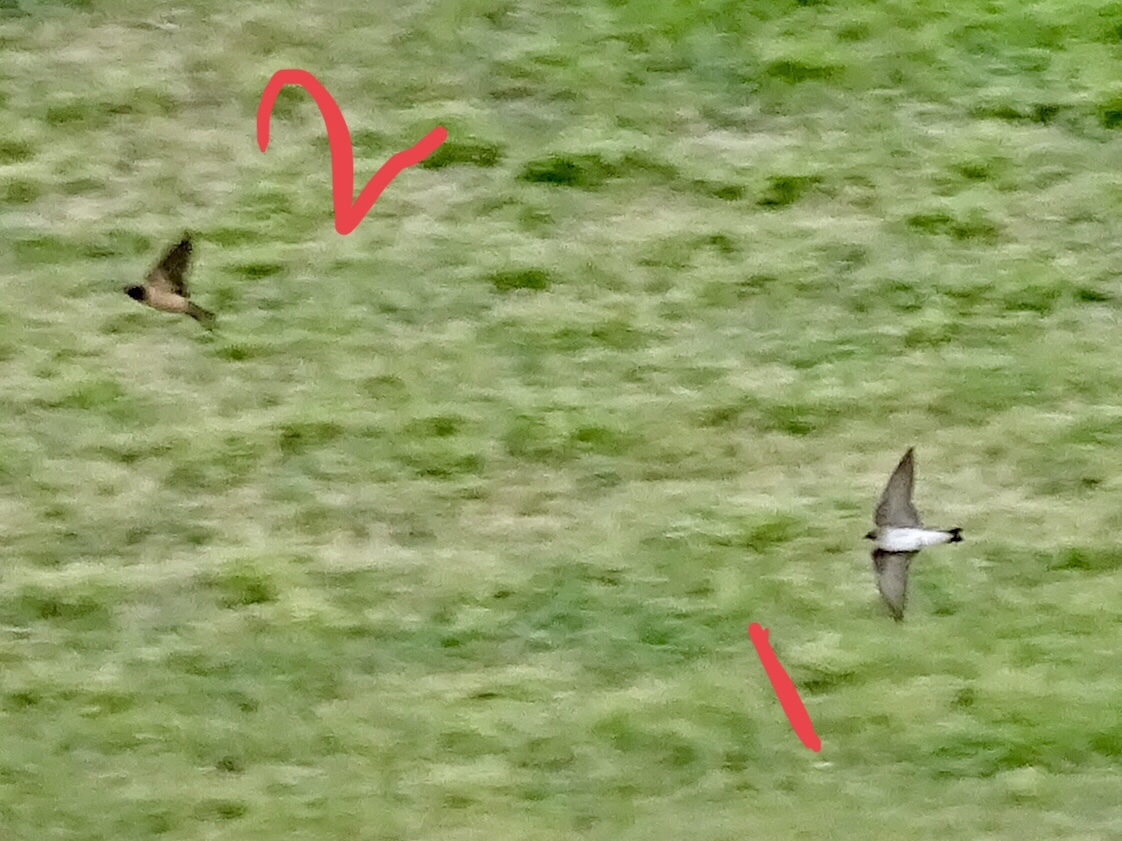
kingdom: Animalia
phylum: Chordata
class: Aves
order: Passeriformes
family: Hirundinidae
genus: Hirundo
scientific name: Hirundo rustica
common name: Barn swallow
